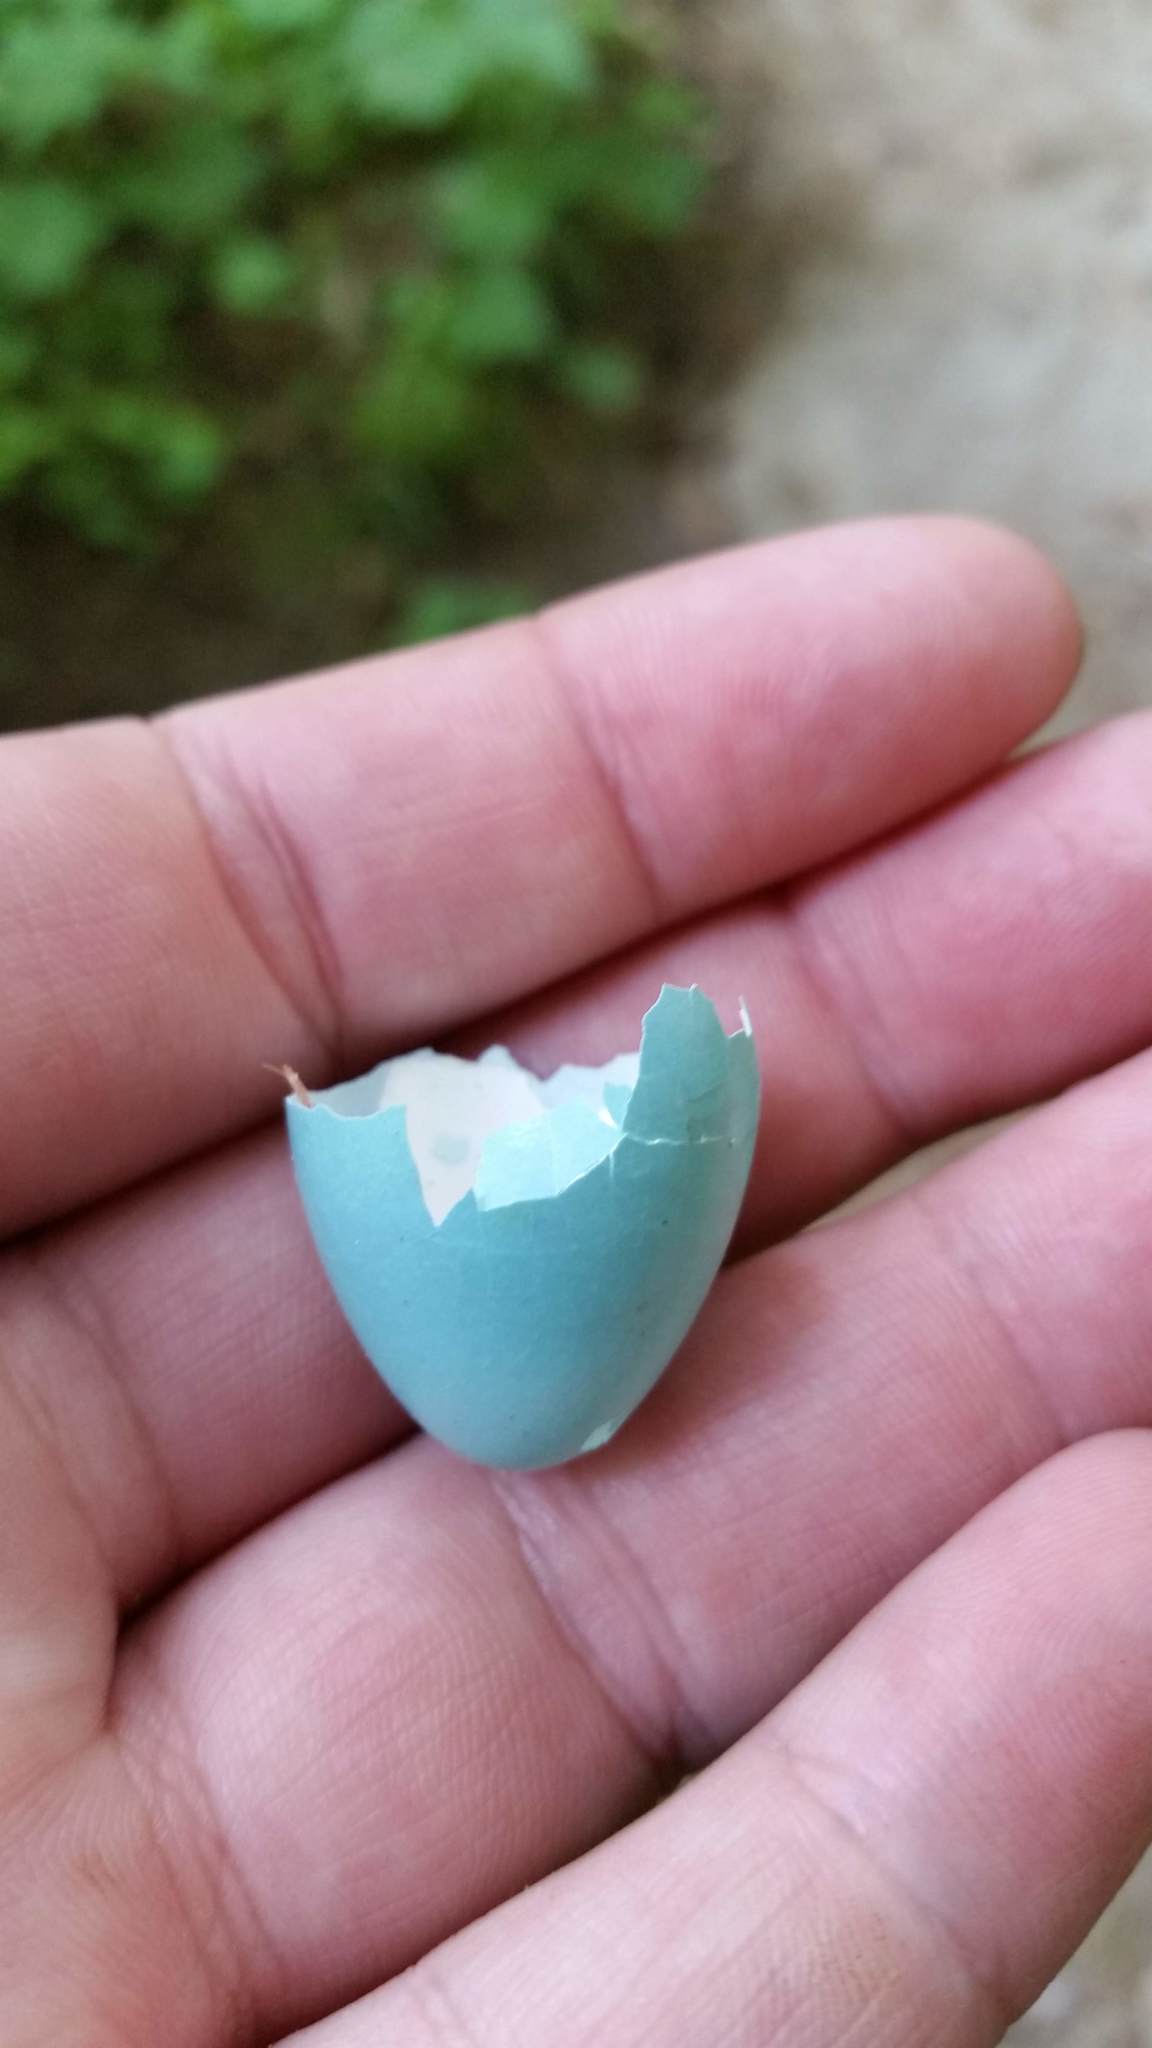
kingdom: Animalia
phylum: Chordata
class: Aves
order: Passeriformes
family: Turdidae
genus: Turdus
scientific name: Turdus migratorius
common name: American robin
